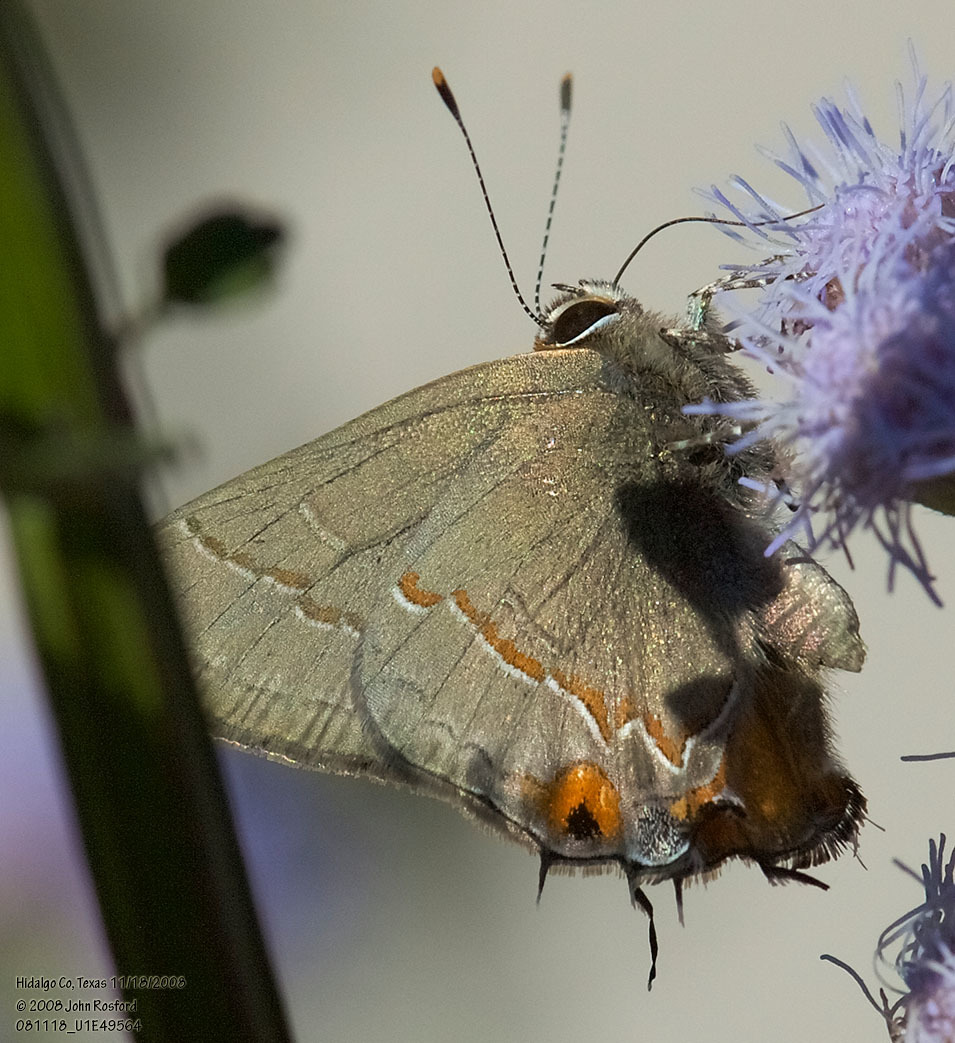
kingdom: Animalia
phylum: Arthropoda
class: Insecta
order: Lepidoptera
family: Lycaenidae
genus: Electrostrymon
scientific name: Electrostrymon endymion
